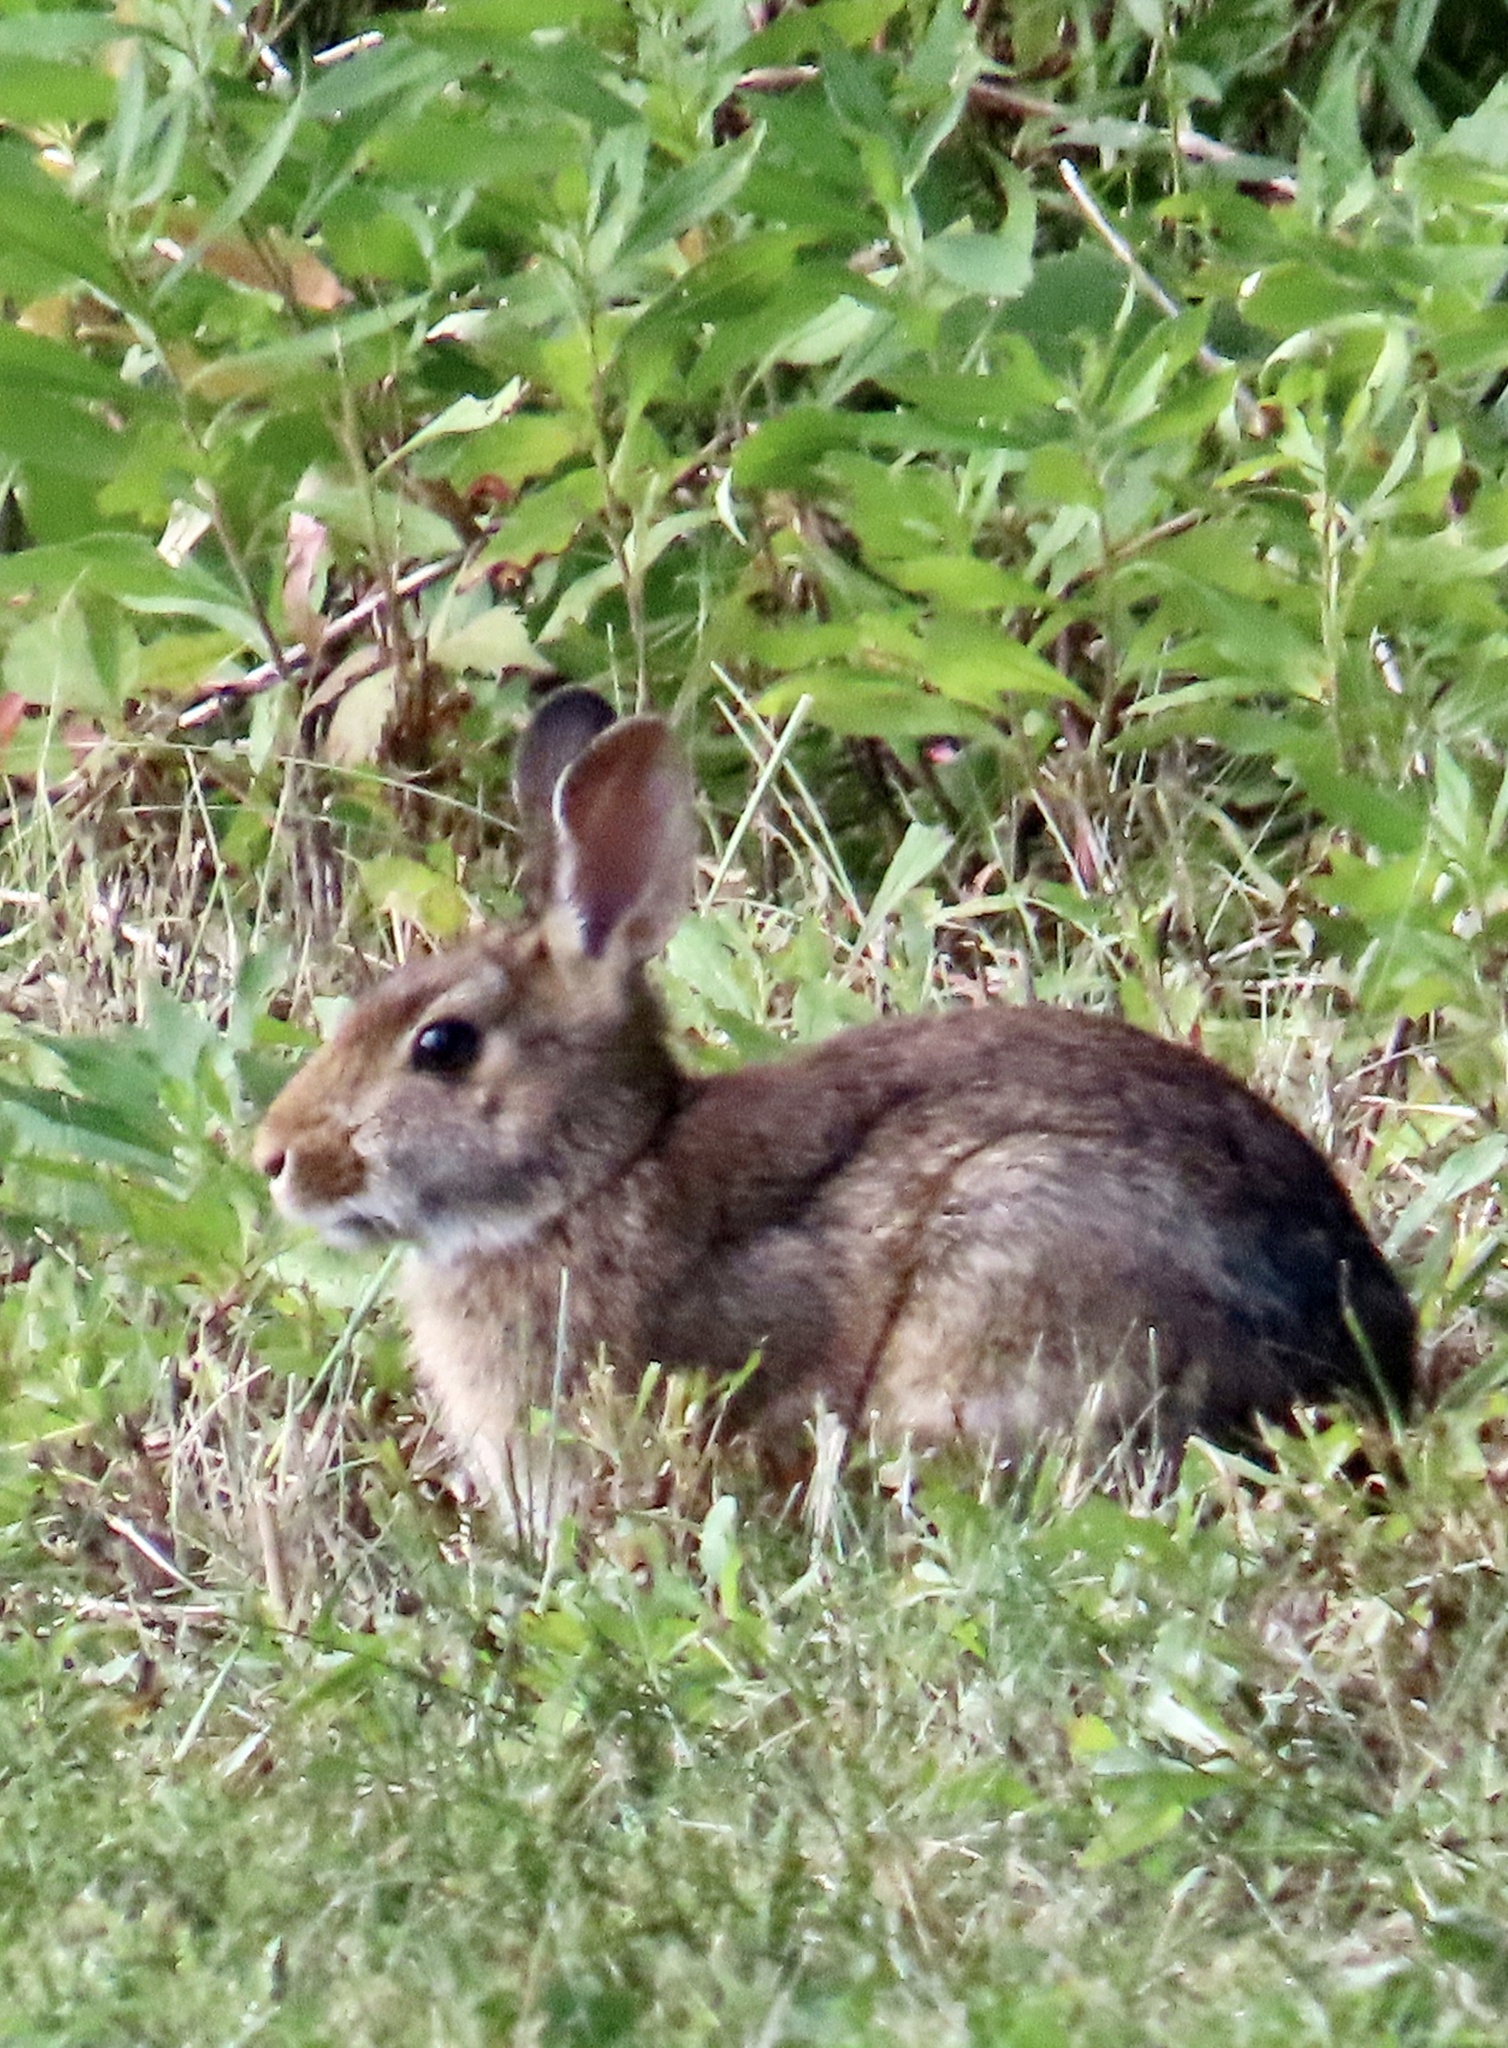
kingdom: Animalia
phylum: Chordata
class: Mammalia
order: Lagomorpha
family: Leporidae
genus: Sylvilagus
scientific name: Sylvilagus floridanus
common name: Eastern cottontail
